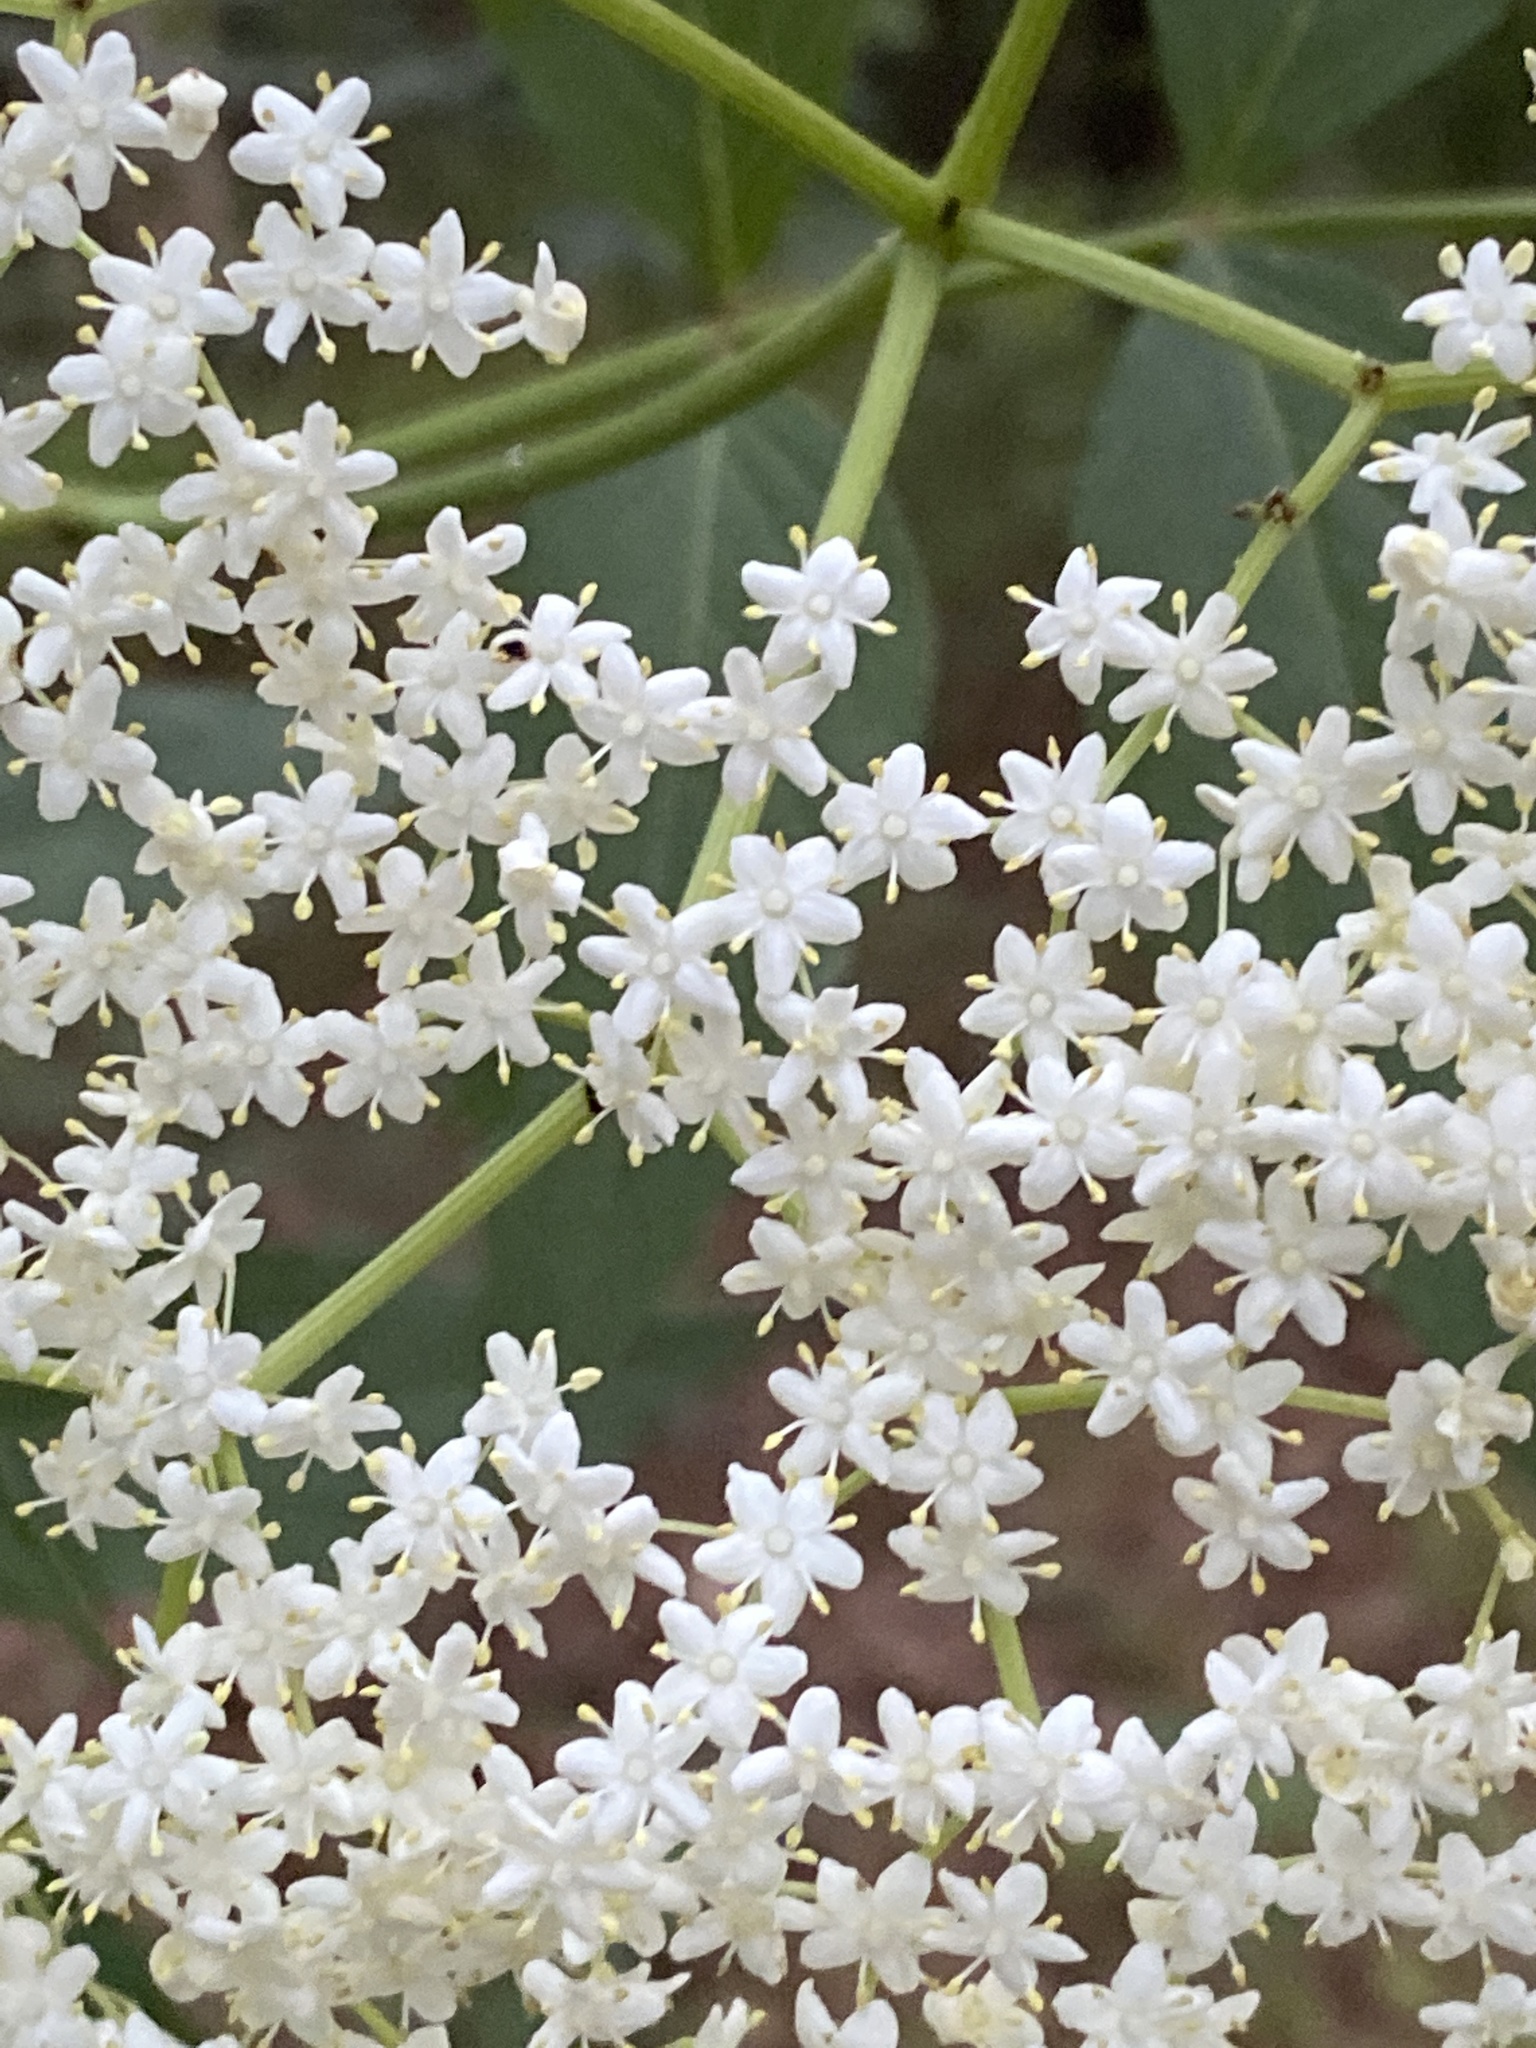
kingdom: Plantae
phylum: Tracheophyta
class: Magnoliopsida
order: Dipsacales
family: Viburnaceae
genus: Sambucus
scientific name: Sambucus canadensis
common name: American elder
